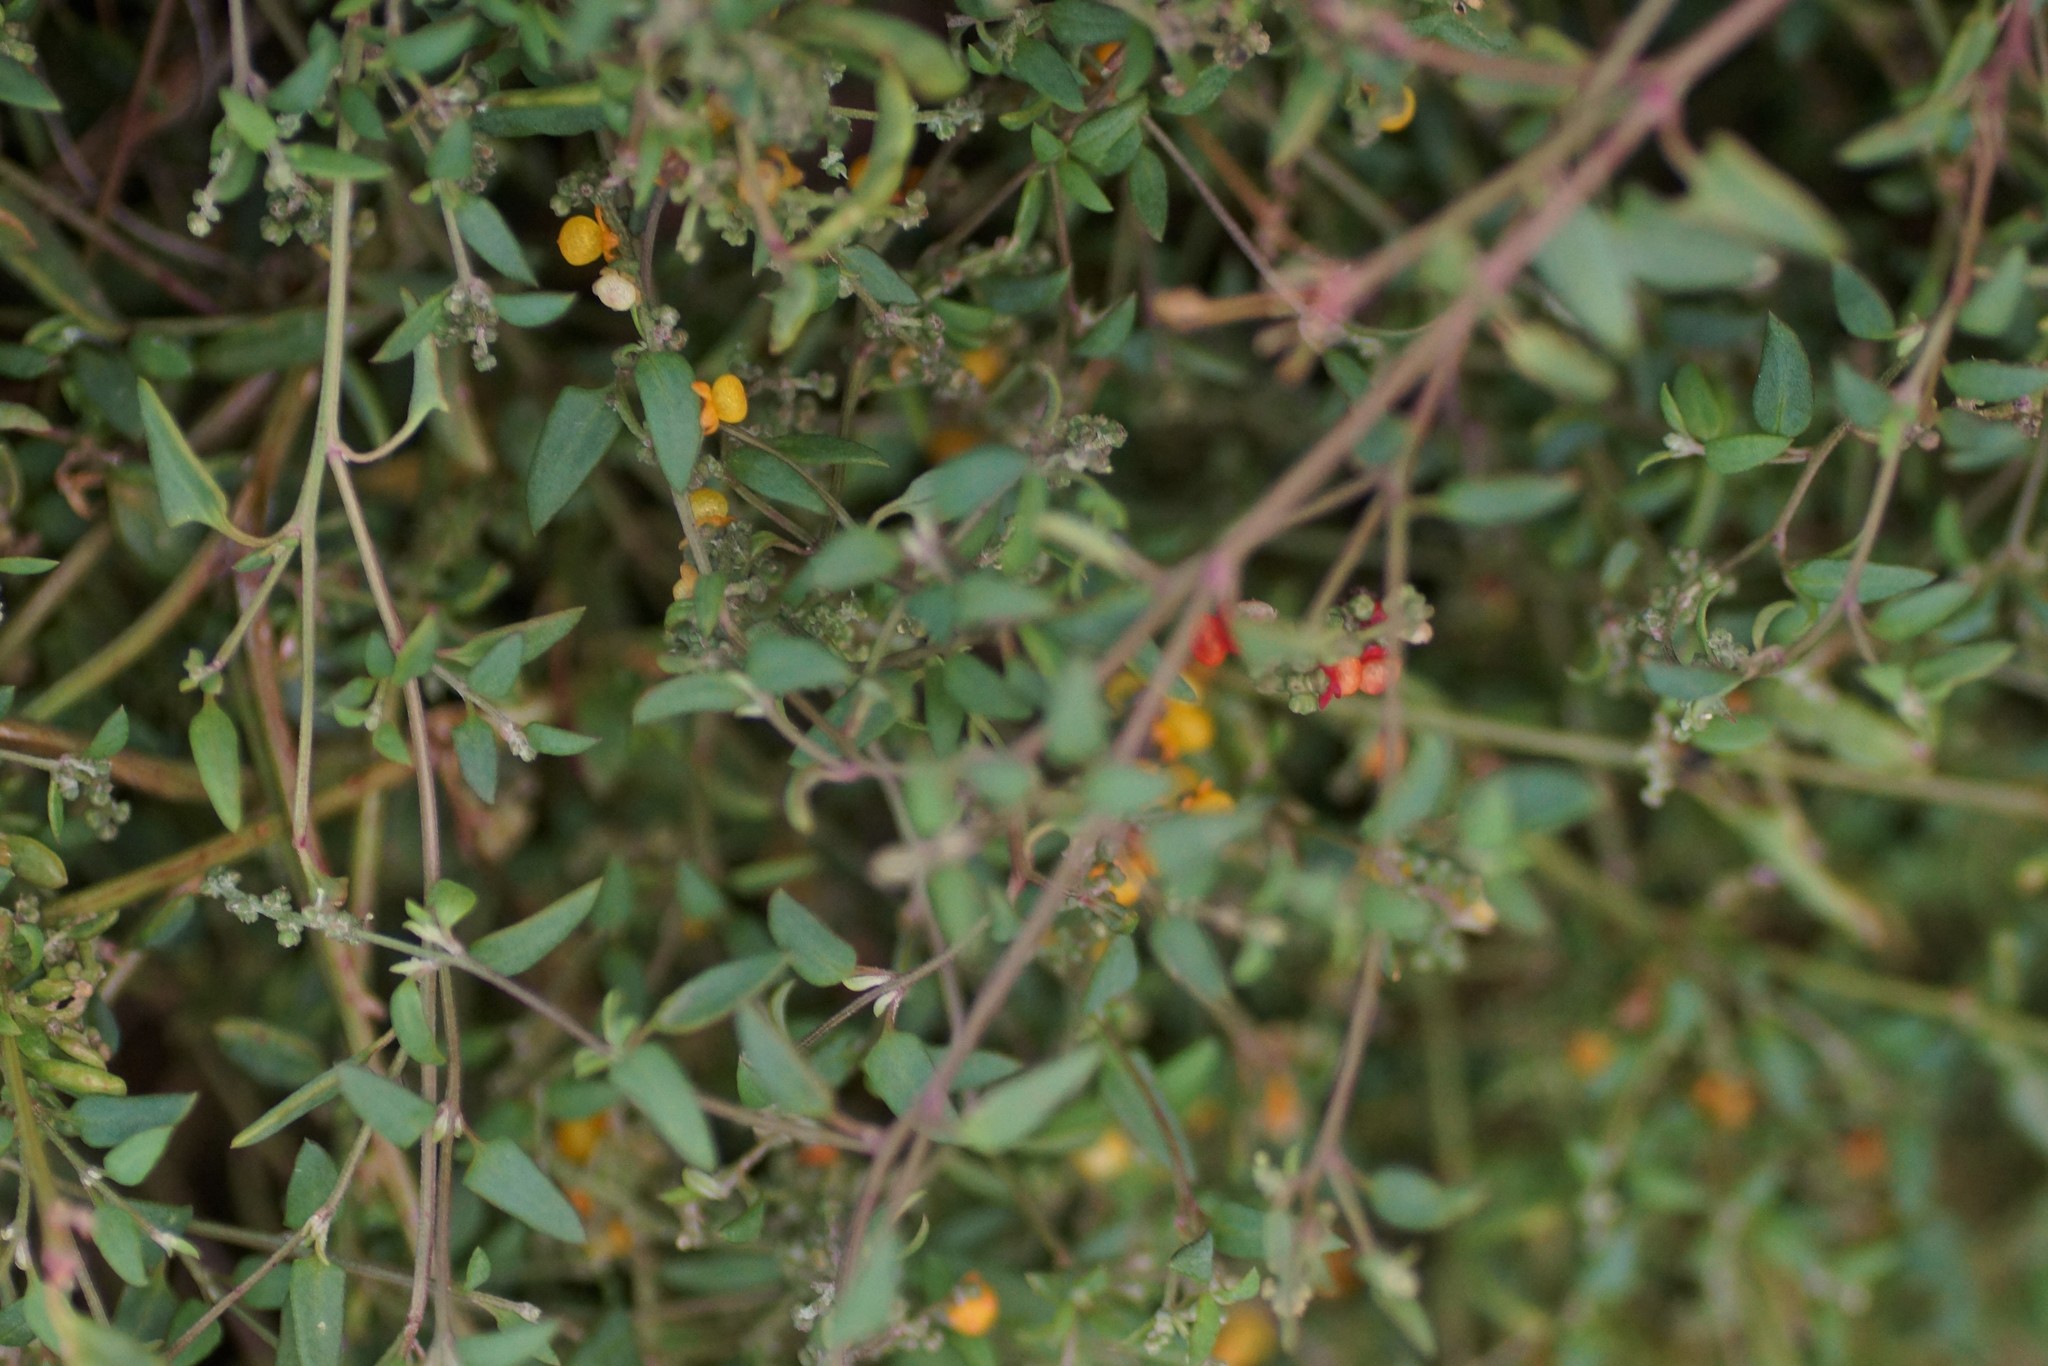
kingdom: Plantae
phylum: Tracheophyta
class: Magnoliopsida
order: Caryophyllales
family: Amaranthaceae
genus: Chenopodium
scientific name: Chenopodium nutans
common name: Climbing-saltbush
